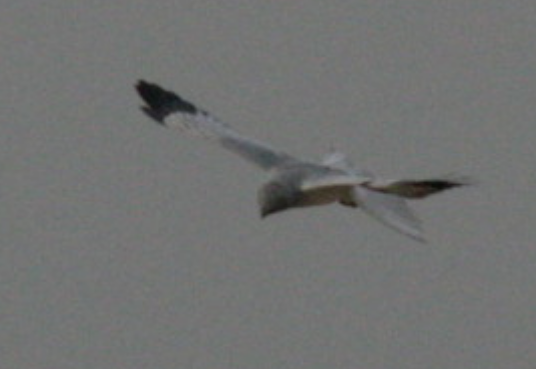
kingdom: Animalia
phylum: Chordata
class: Aves
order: Accipitriformes
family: Accipitridae
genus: Circus
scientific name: Circus cyaneus
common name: Hen harrier
